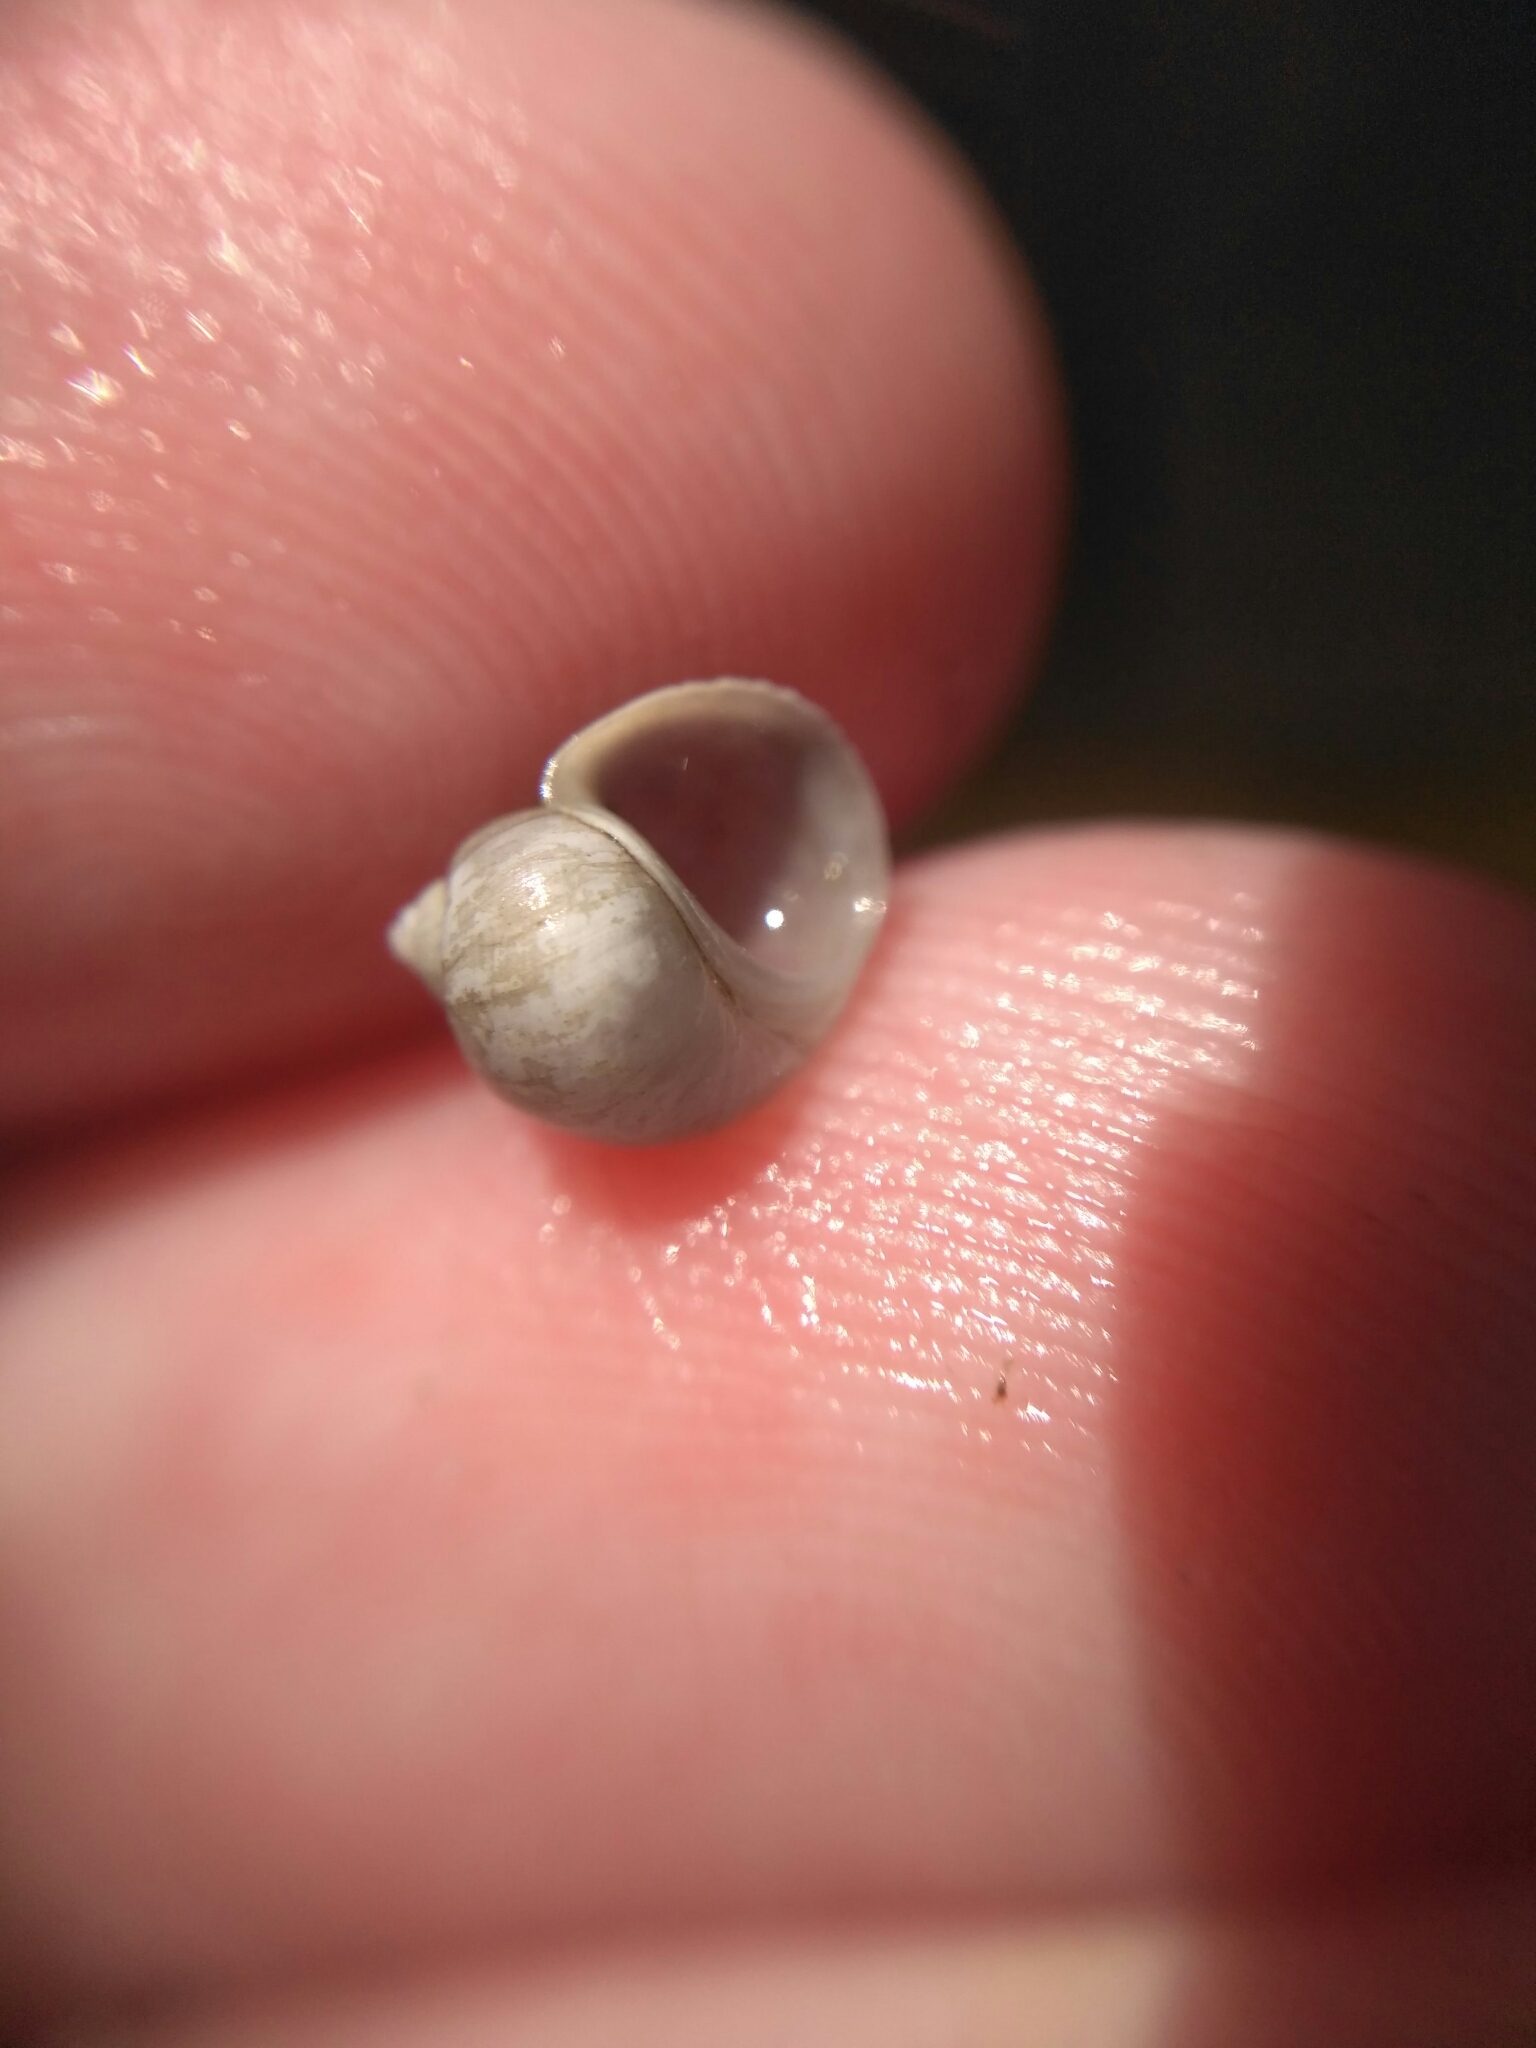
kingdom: Animalia
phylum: Mollusca
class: Gastropoda
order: Littorinimorpha
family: Lithoglyphidae
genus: Lithoglyphus
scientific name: Lithoglyphus naticoides
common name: Gravel snail
